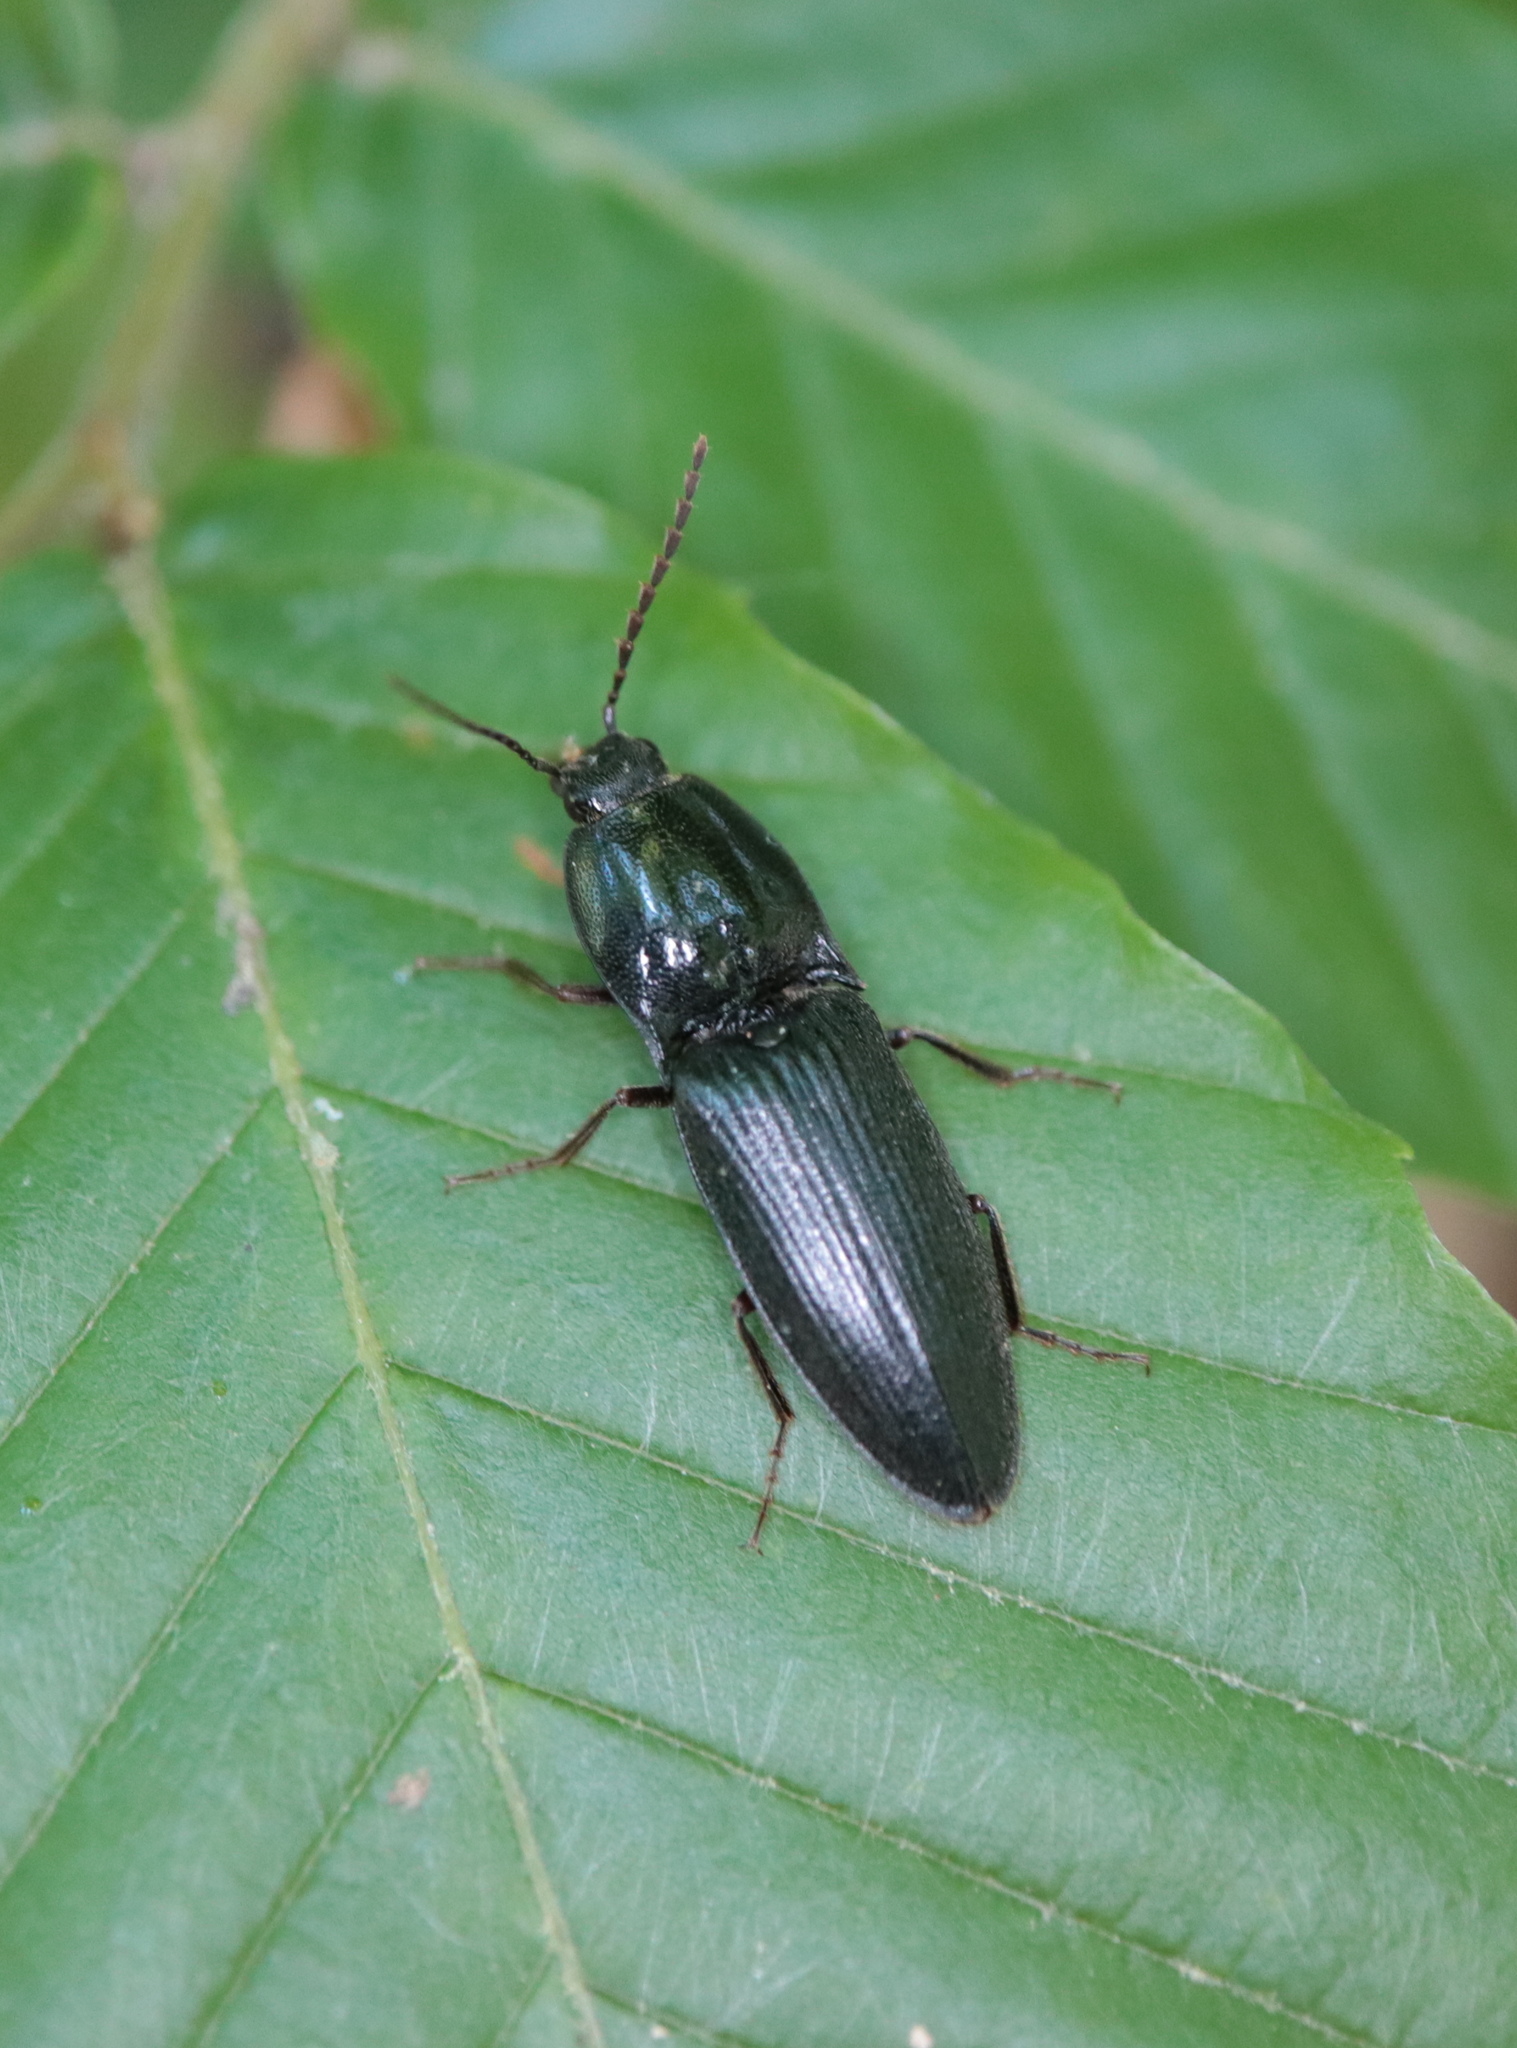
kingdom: Animalia
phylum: Arthropoda
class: Insecta
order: Coleoptera
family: Elateridae
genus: Neopristilophus
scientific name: Neopristilophus
